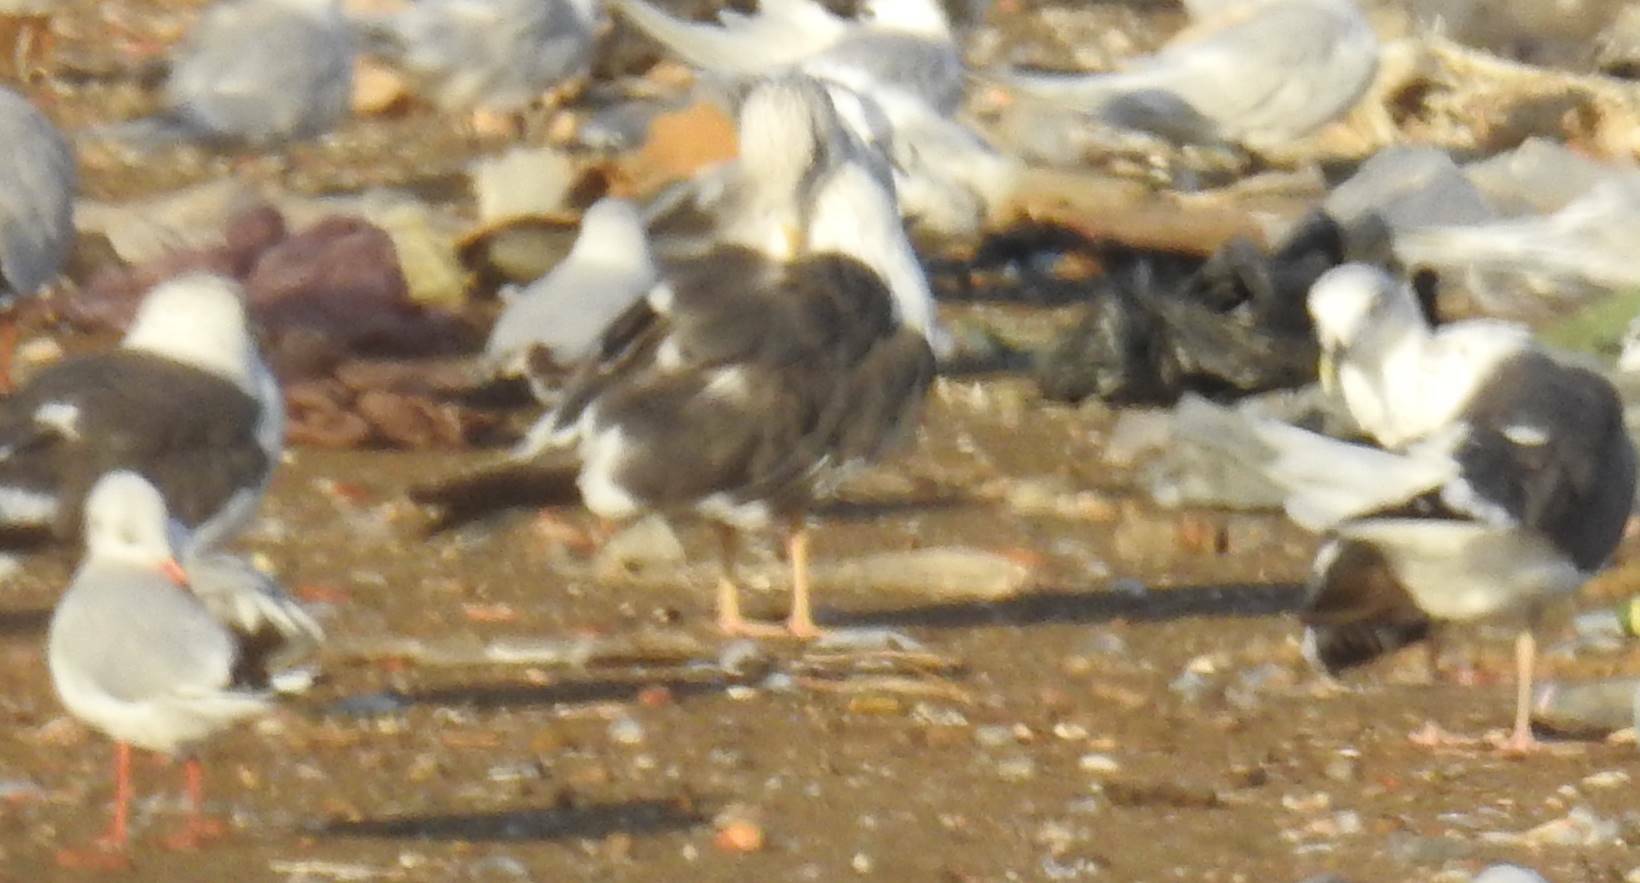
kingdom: Animalia
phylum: Chordata
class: Aves
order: Charadriiformes
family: Laridae
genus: Larus
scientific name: Larus fuscus
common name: Lesser black-backed gull
